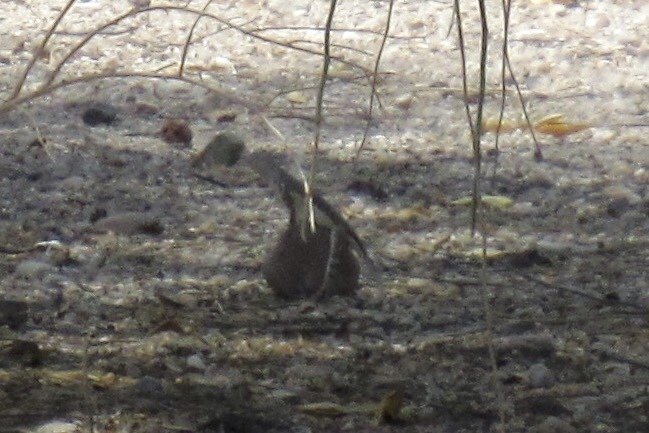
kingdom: Animalia
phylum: Chordata
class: Squamata
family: Phrynosomatidae
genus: Callisaurus
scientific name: Callisaurus draconoides
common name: Zebra-tailed lizard
